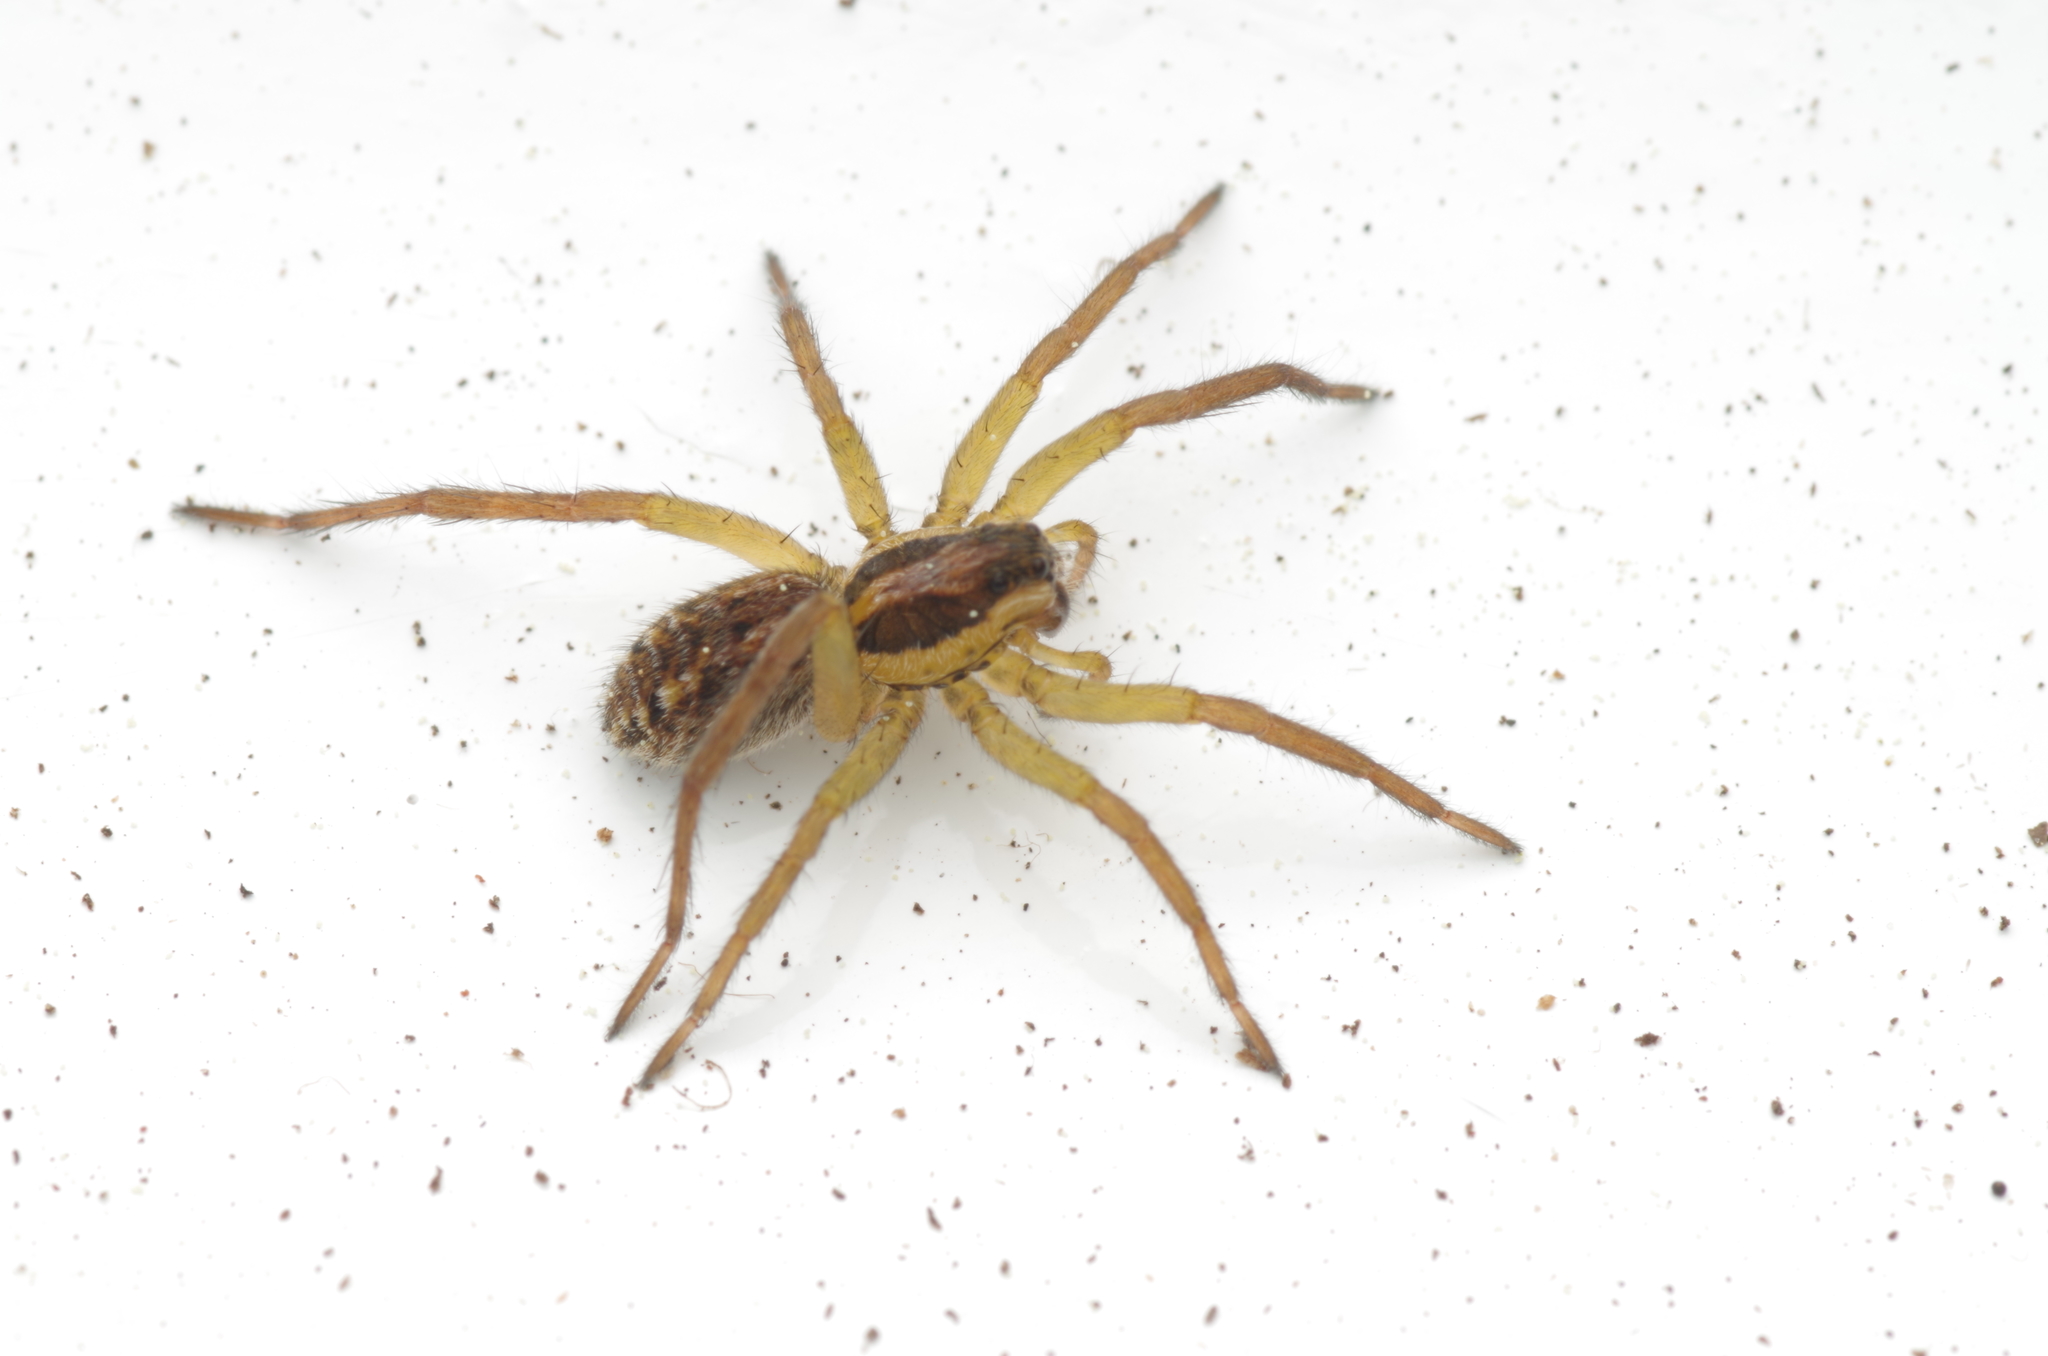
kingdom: Animalia
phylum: Arthropoda
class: Arachnida
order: Araneae
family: Lycosidae
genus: Hogna
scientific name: Hogna radiata
